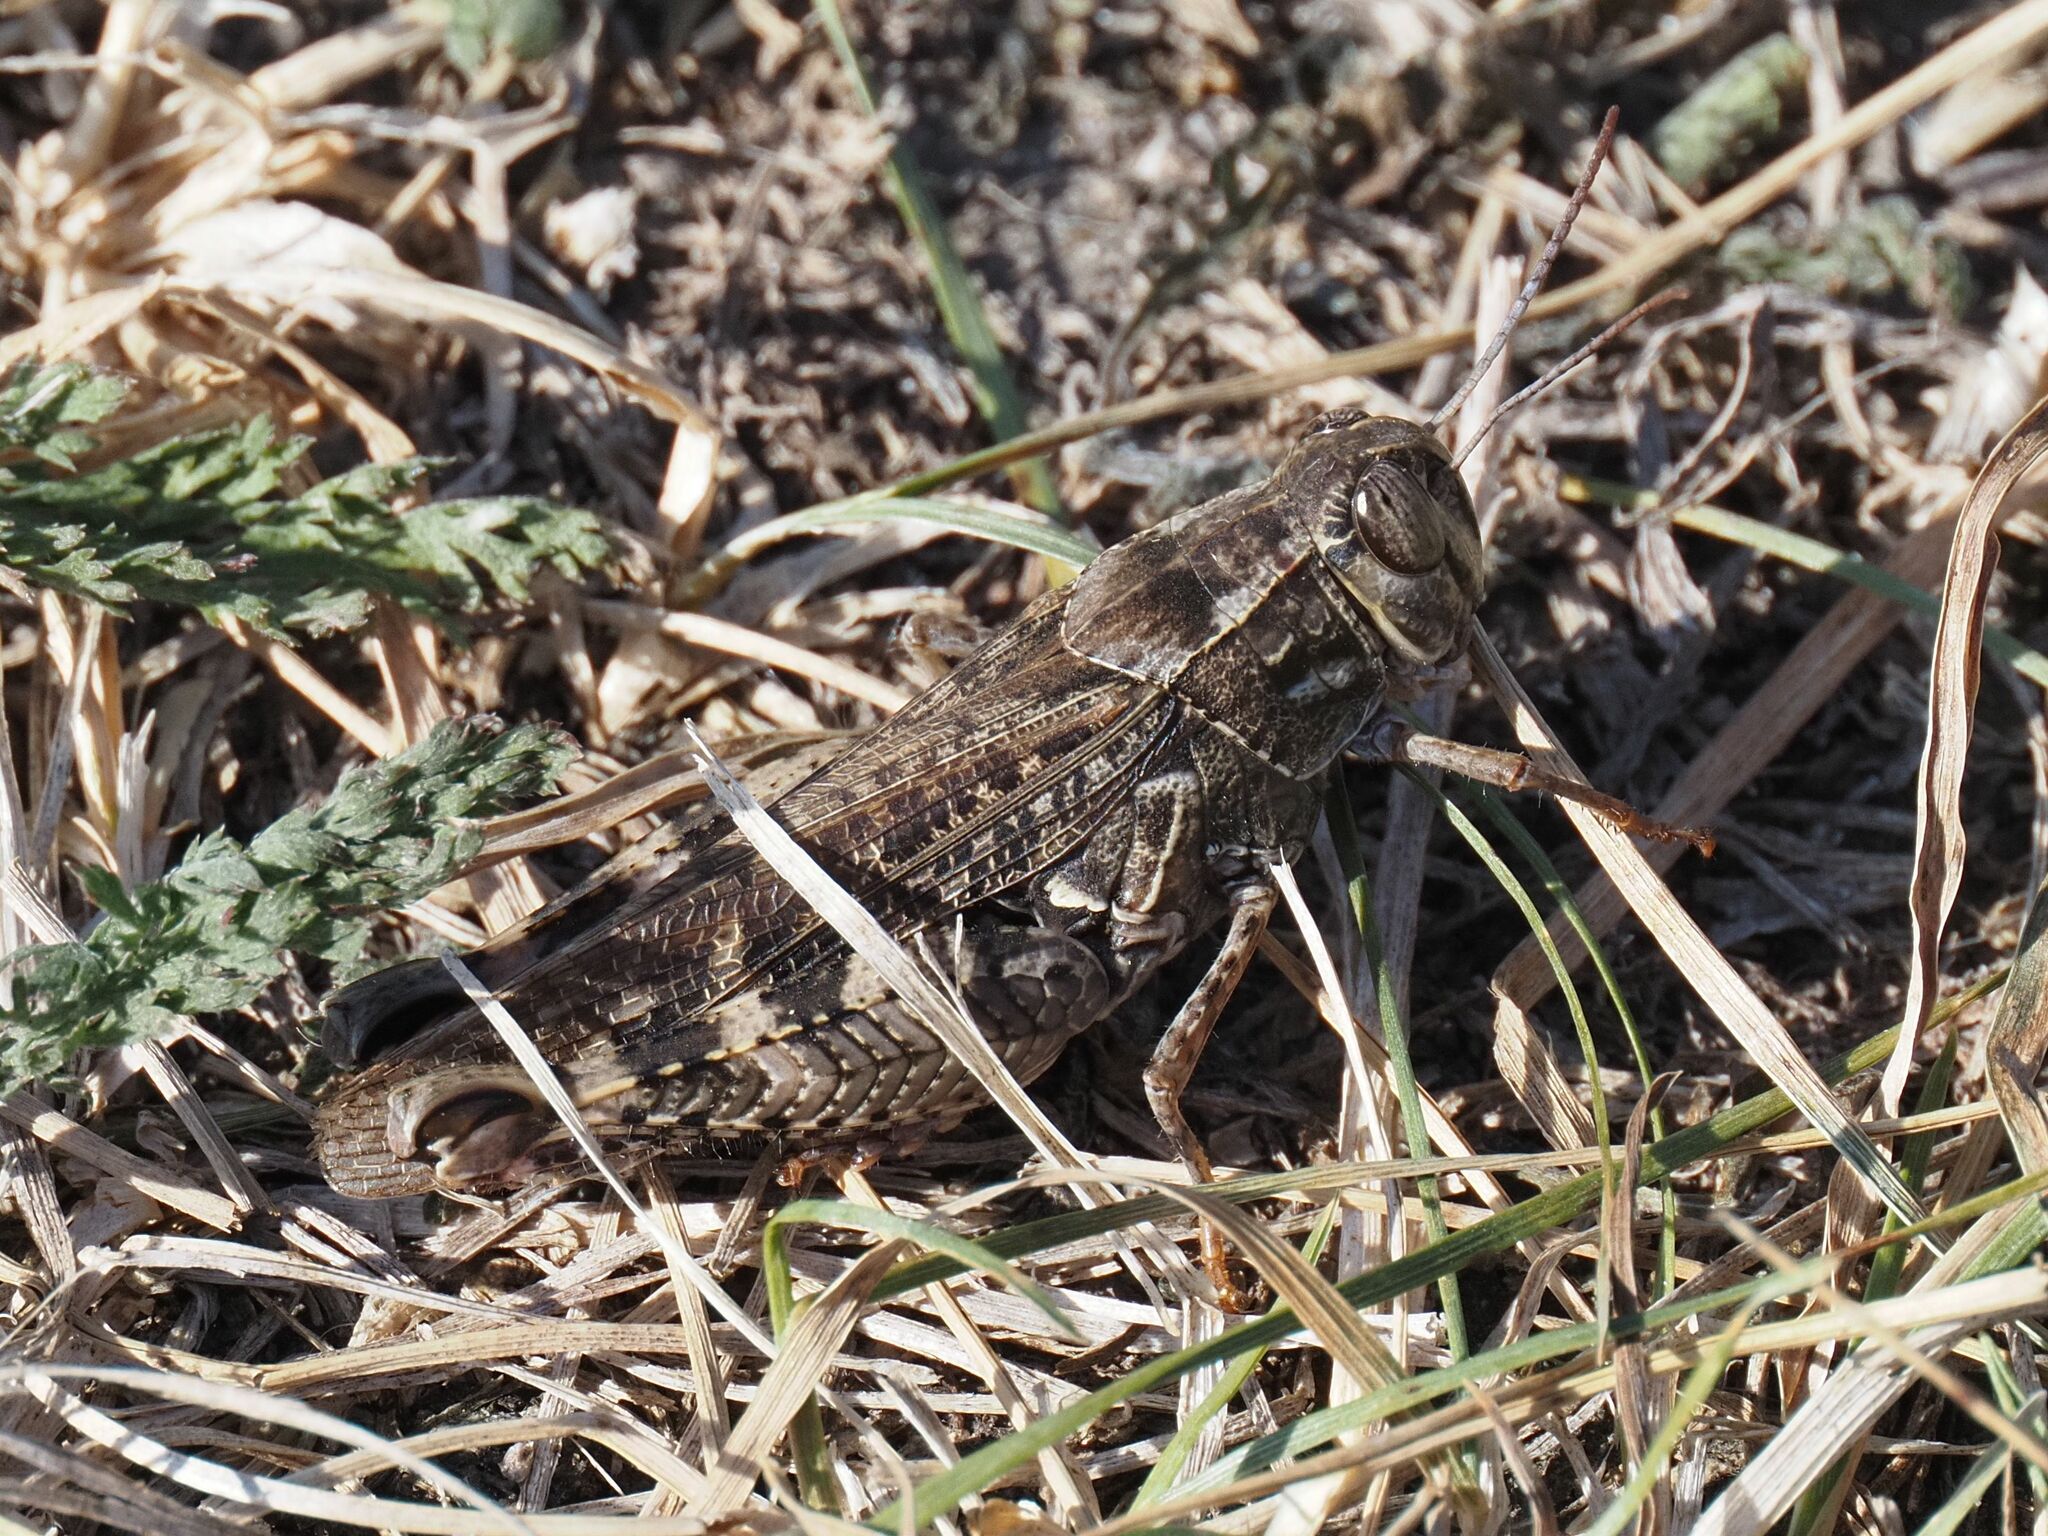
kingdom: Animalia
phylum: Arthropoda
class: Insecta
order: Orthoptera
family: Acrididae
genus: Calliptamus
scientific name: Calliptamus italicus
